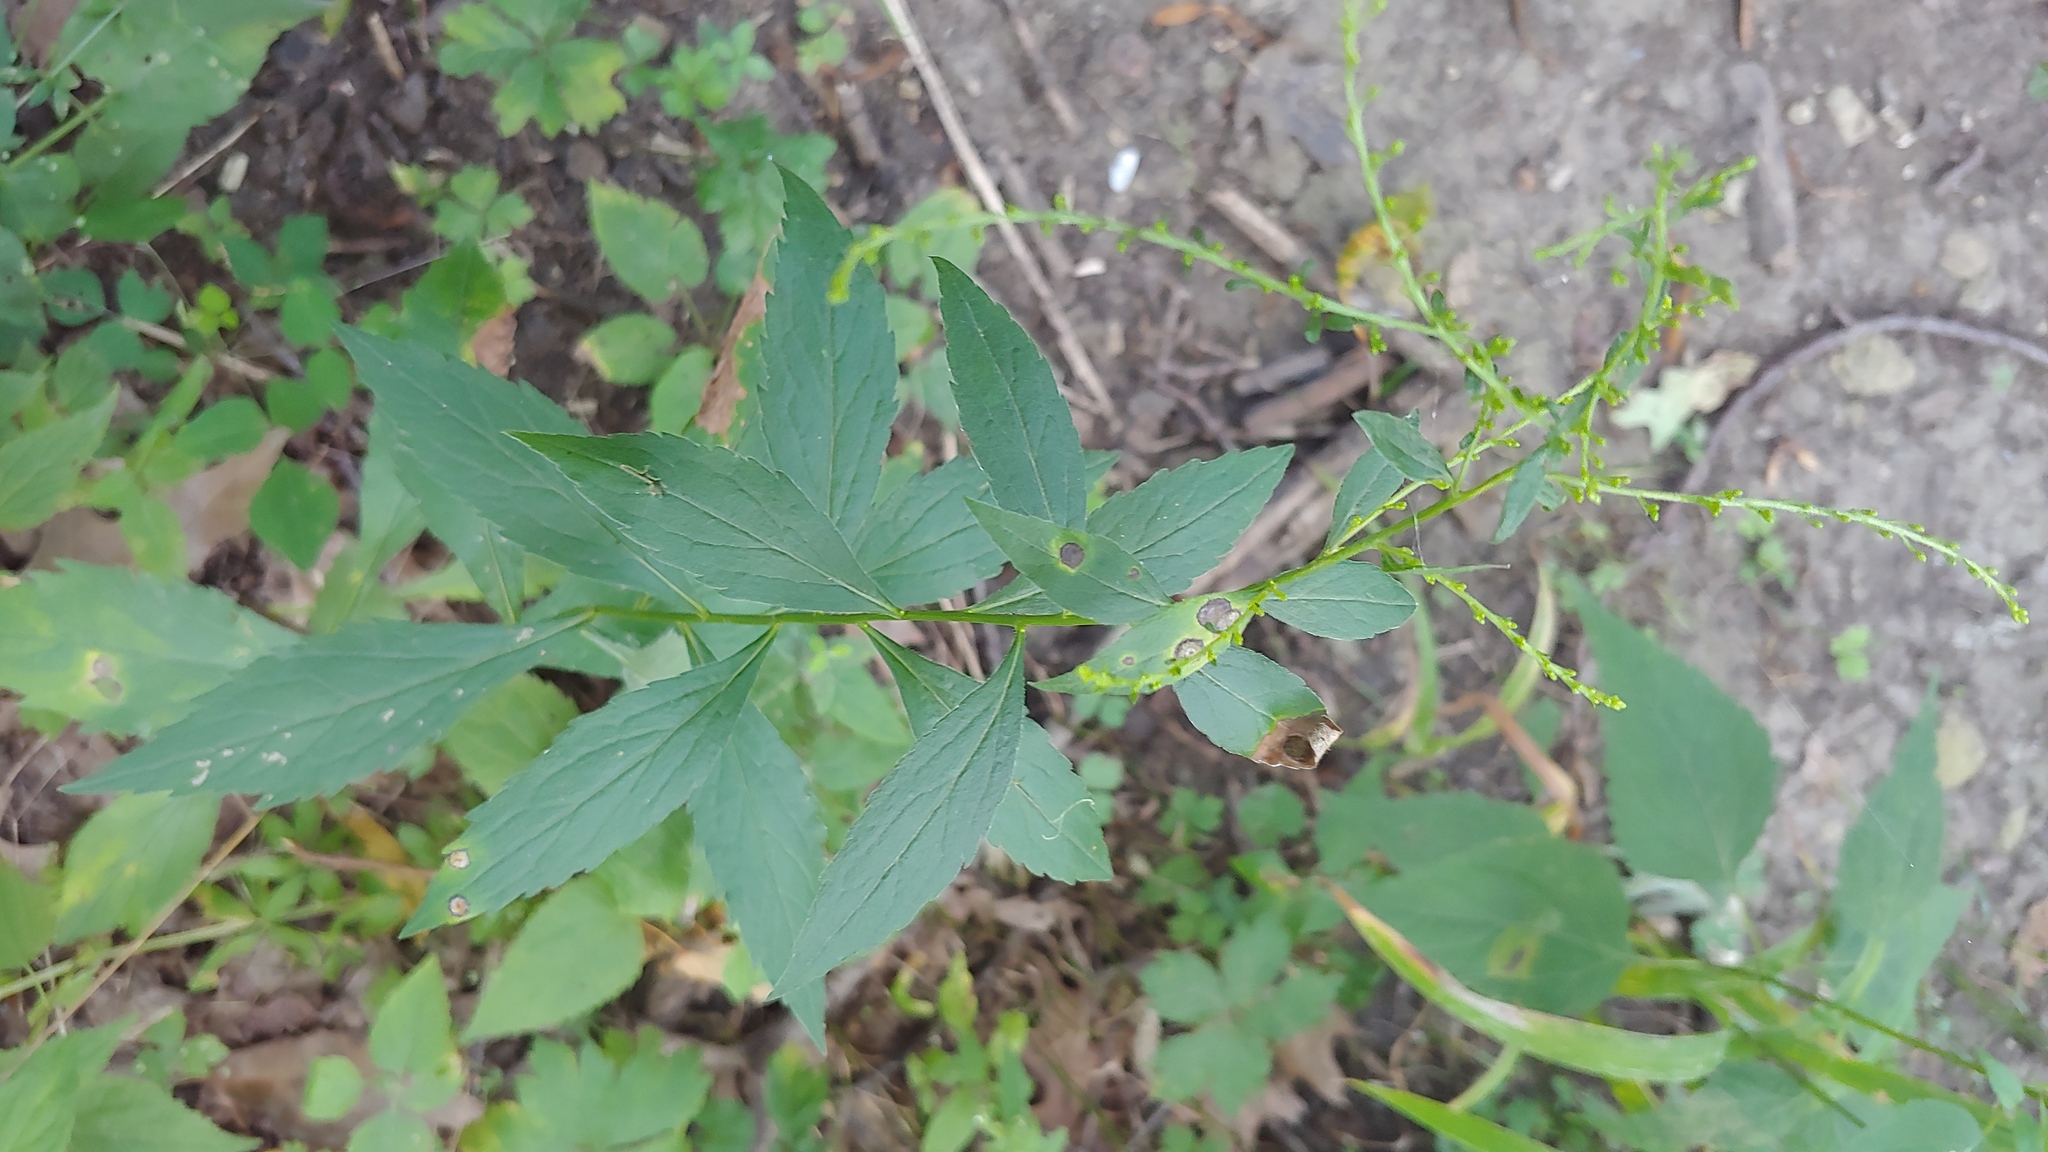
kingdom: Animalia
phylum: Arthropoda
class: Insecta
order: Diptera
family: Cecidomyiidae
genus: Asteromyia
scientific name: Asteromyia carbonifera
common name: Carbonifera goldenrod gall midge
